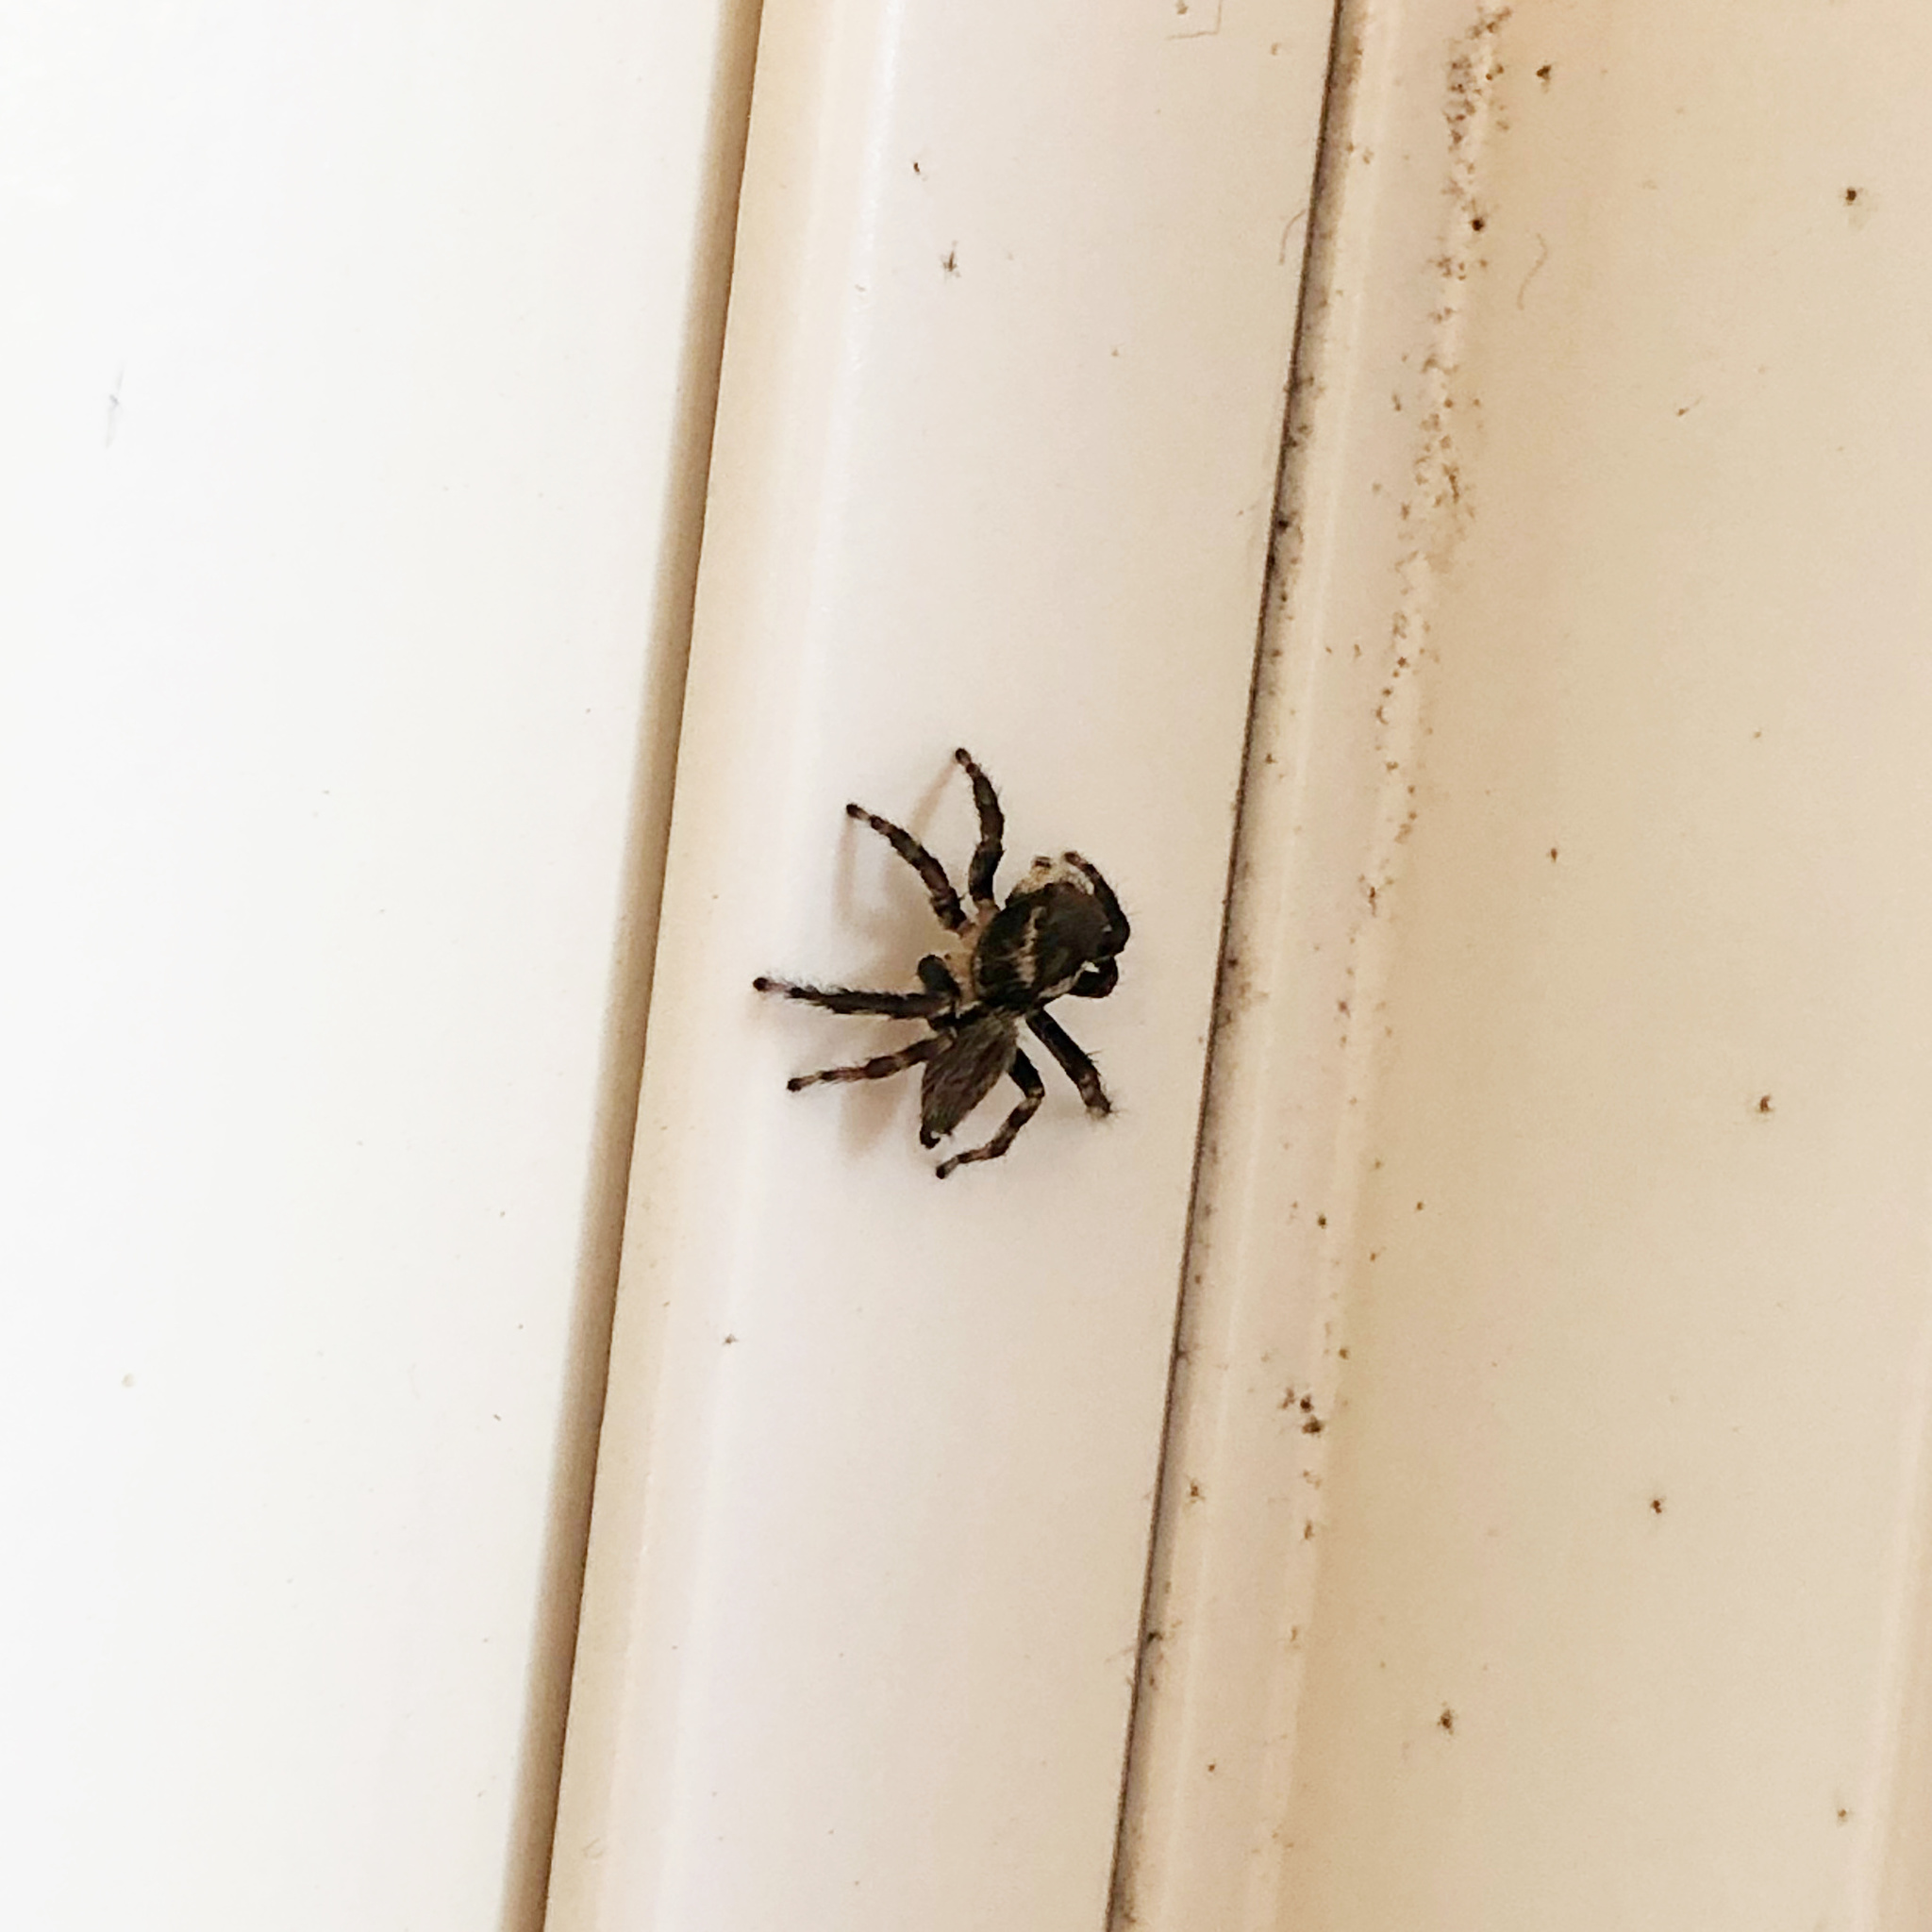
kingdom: Animalia
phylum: Arthropoda
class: Arachnida
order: Araneae
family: Salticidae
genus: Maratus
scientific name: Maratus griseus
